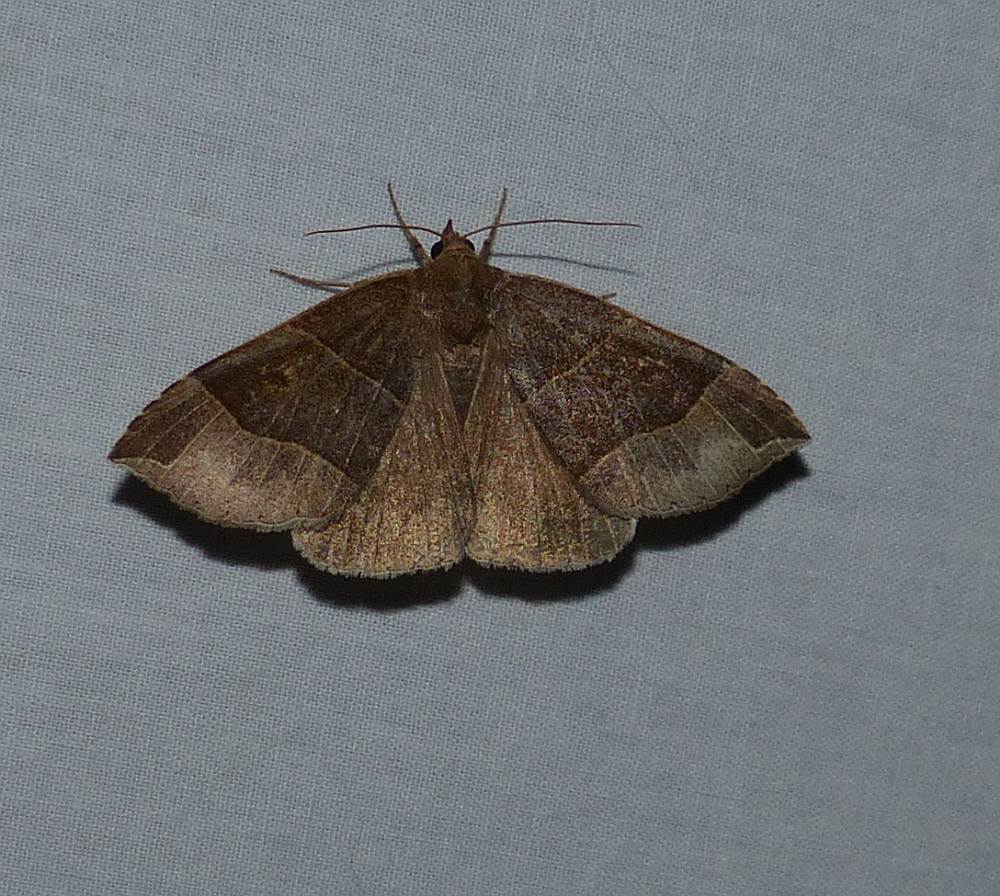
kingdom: Animalia
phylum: Arthropoda
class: Insecta
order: Lepidoptera
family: Erebidae
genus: Parallelia
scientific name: Parallelia bistriaris
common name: Maple looper moth
